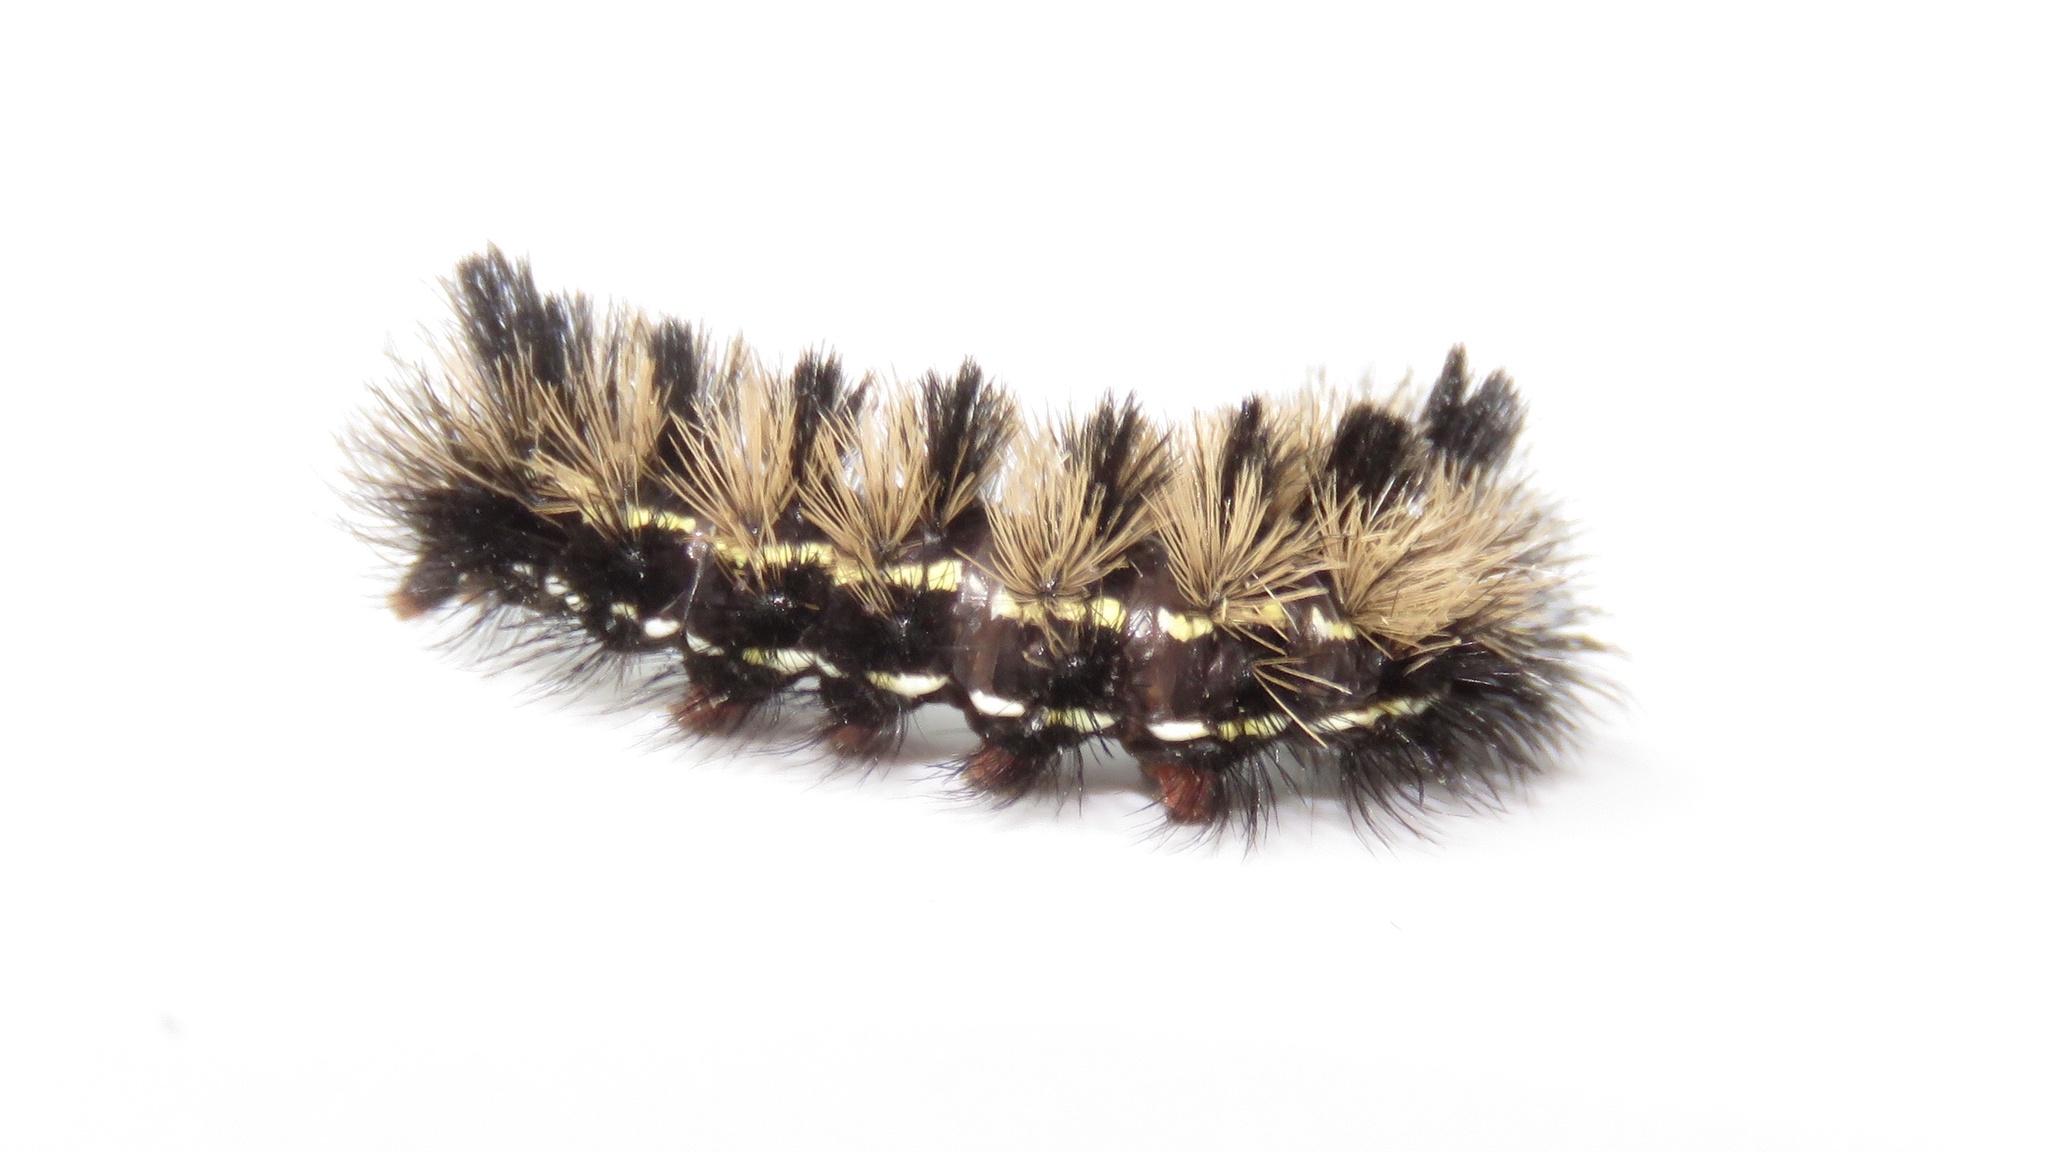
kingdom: Animalia
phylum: Arthropoda
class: Insecta
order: Lepidoptera
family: Erebidae
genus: Ctenucha
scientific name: Ctenucha virginica
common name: Virginia ctenucha moth
